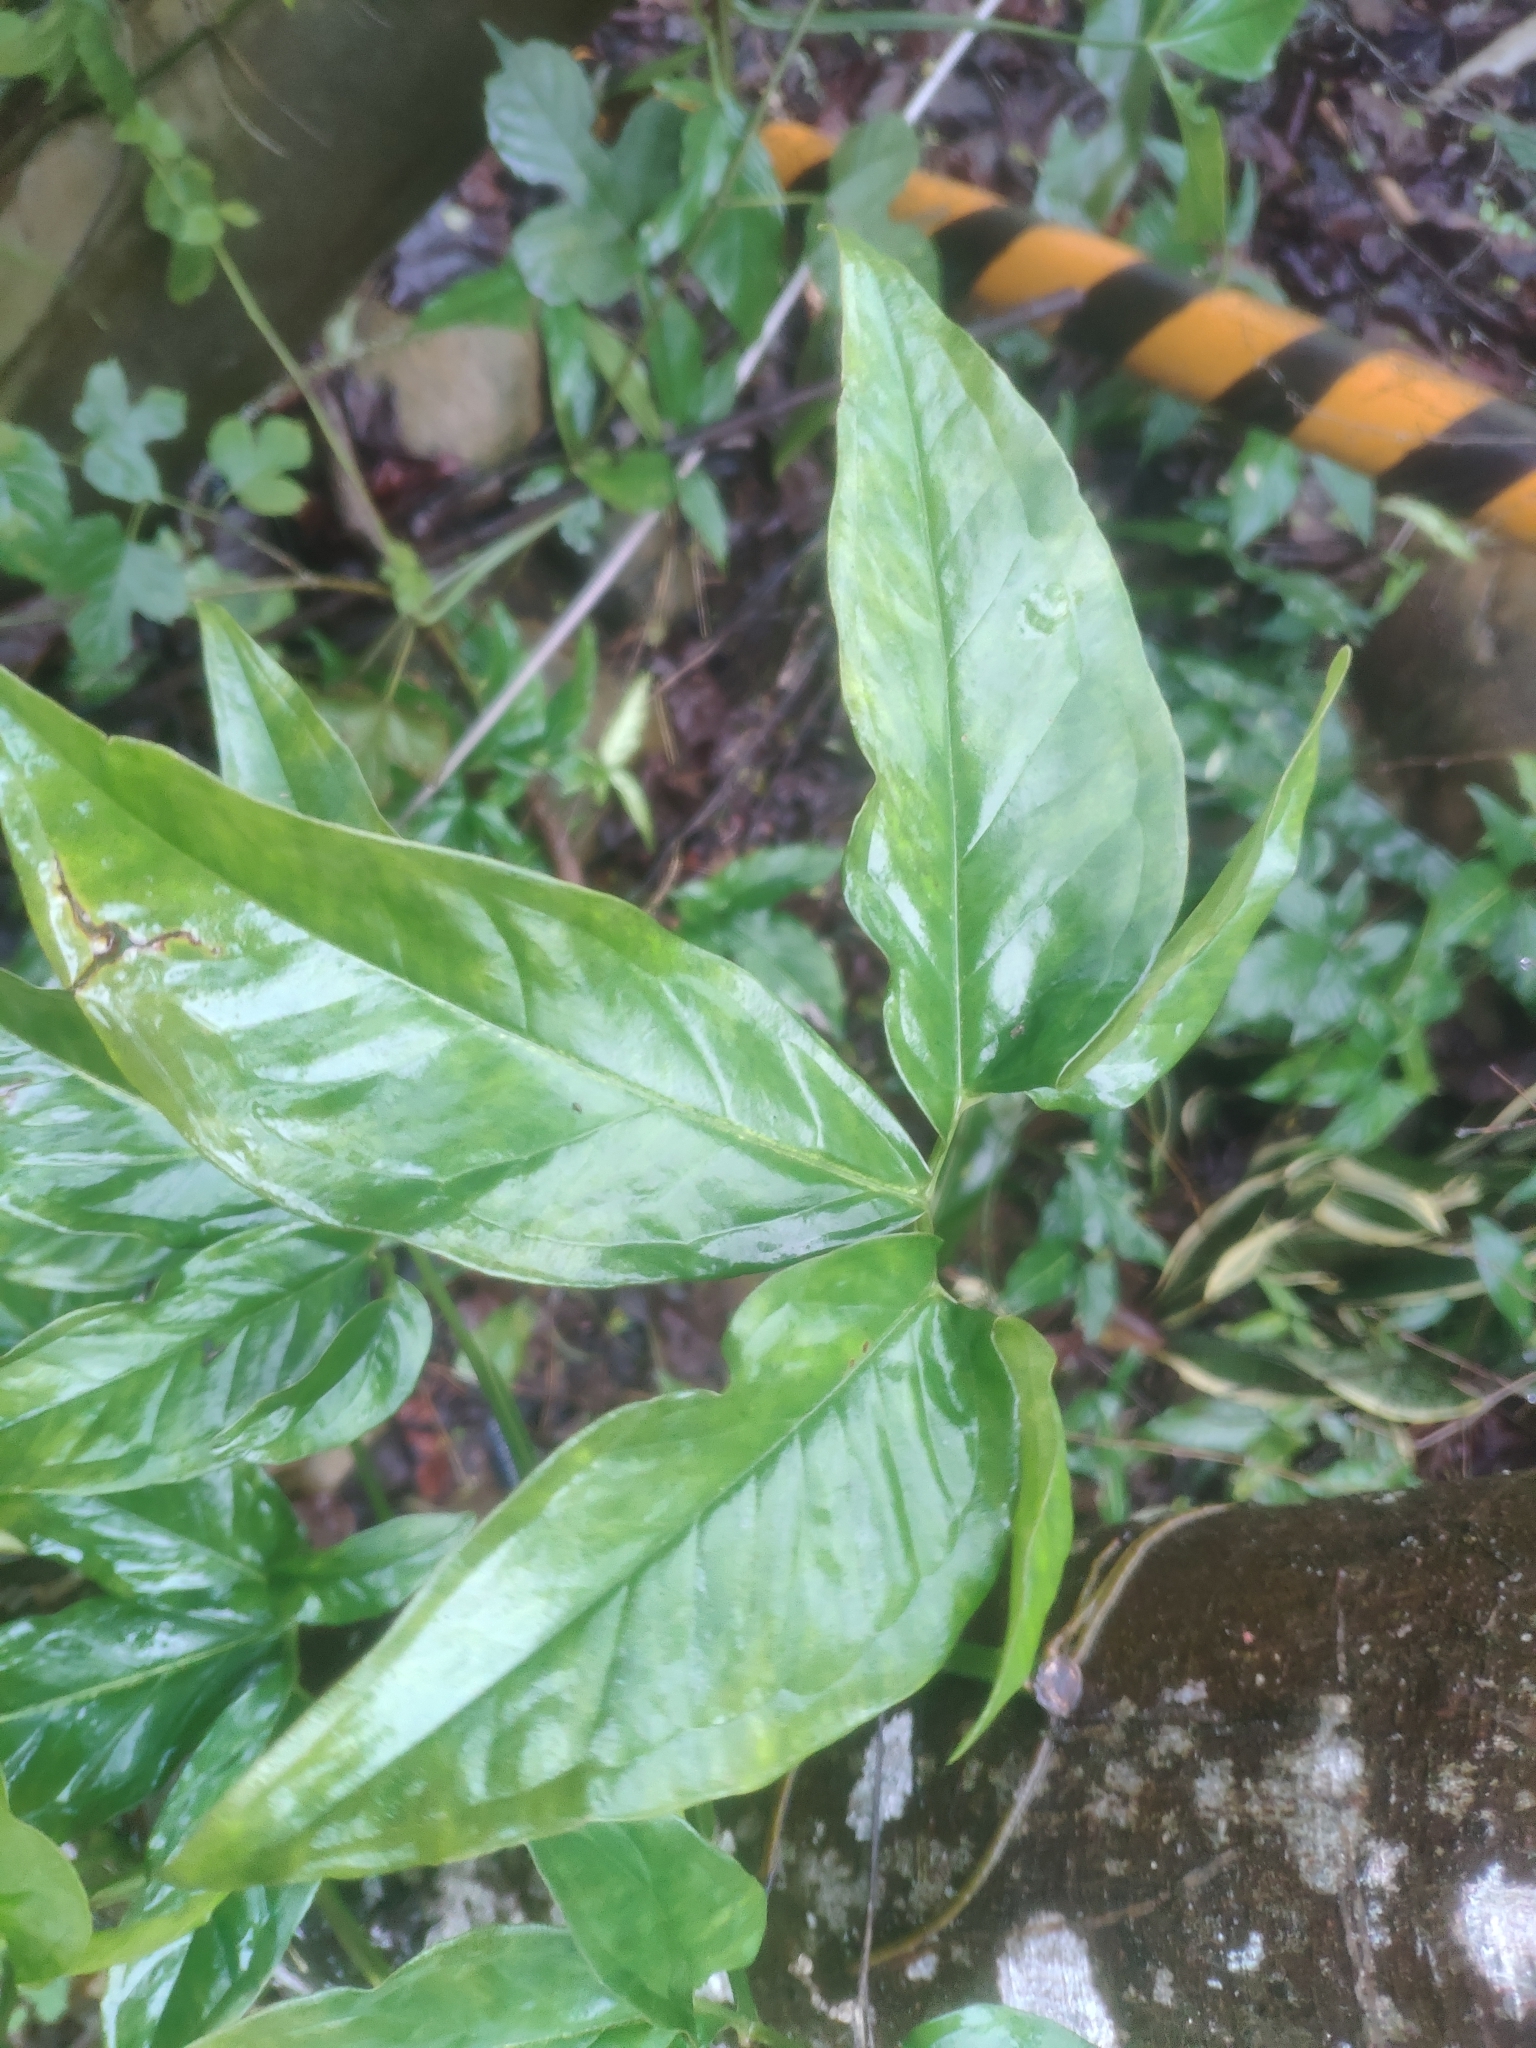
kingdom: Plantae
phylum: Tracheophyta
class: Liliopsida
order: Alismatales
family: Araceae
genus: Syngonium
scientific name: Syngonium angustatum
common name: Fivefingers
